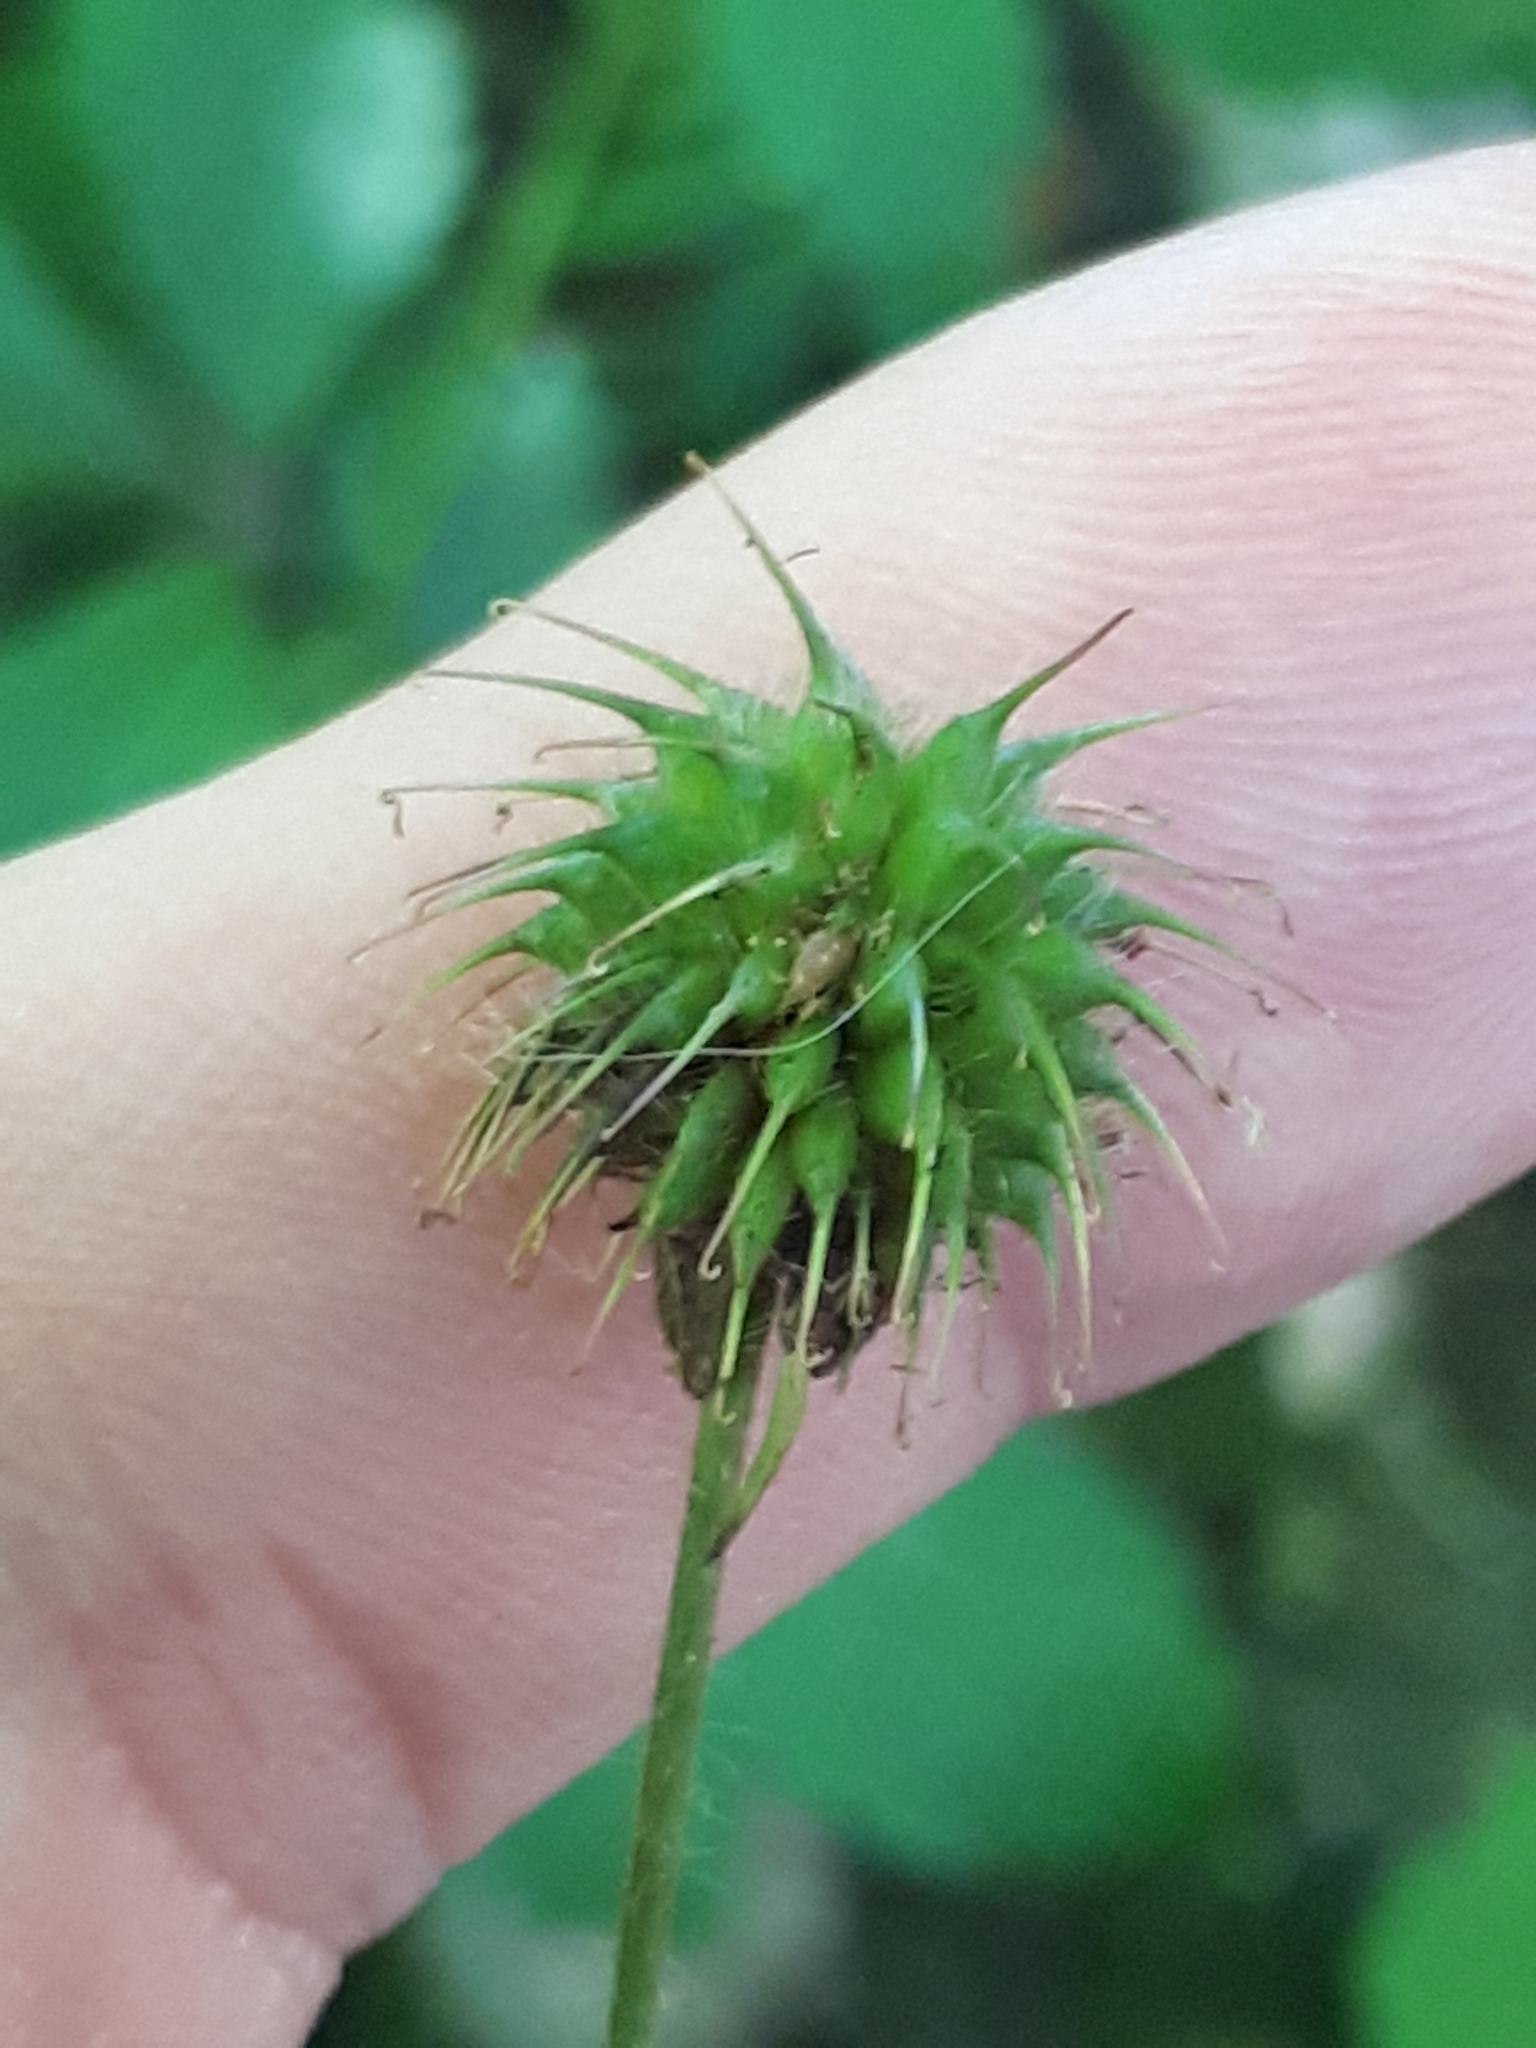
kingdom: Plantae
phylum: Tracheophyta
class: Magnoliopsida
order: Rosales
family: Rosaceae
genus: Geum
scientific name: Geum urbanum
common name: Wood avens
